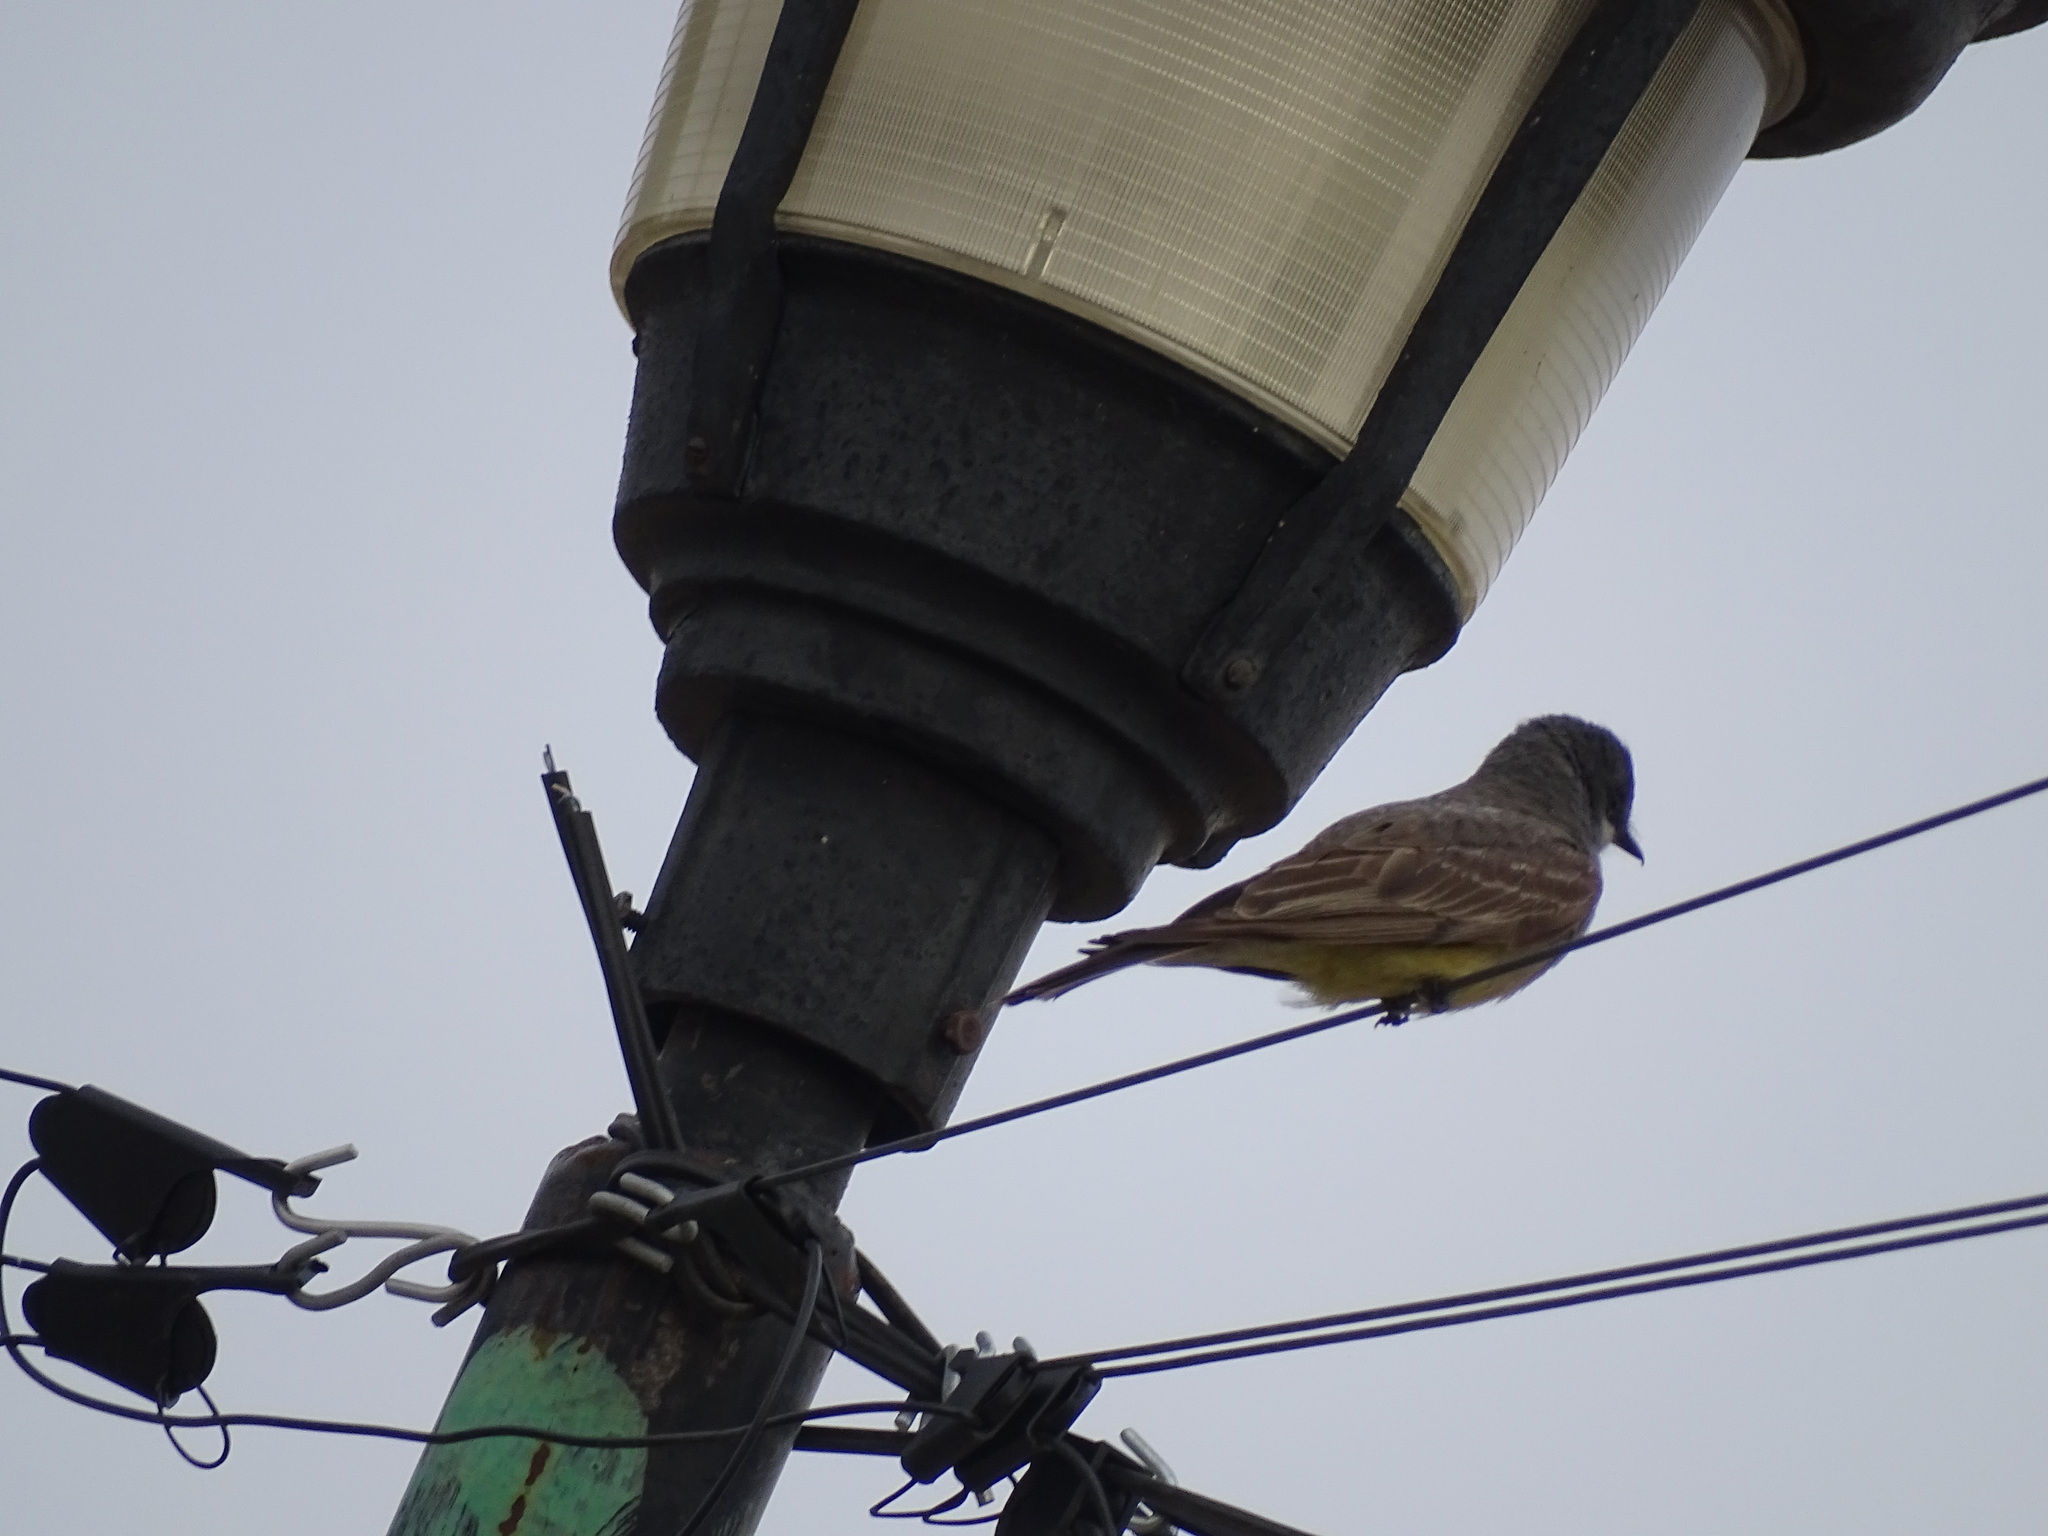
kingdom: Animalia
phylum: Chordata
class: Aves
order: Passeriformes
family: Tyrannidae
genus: Tyrannus
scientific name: Tyrannus vociferans
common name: Cassin's kingbird
